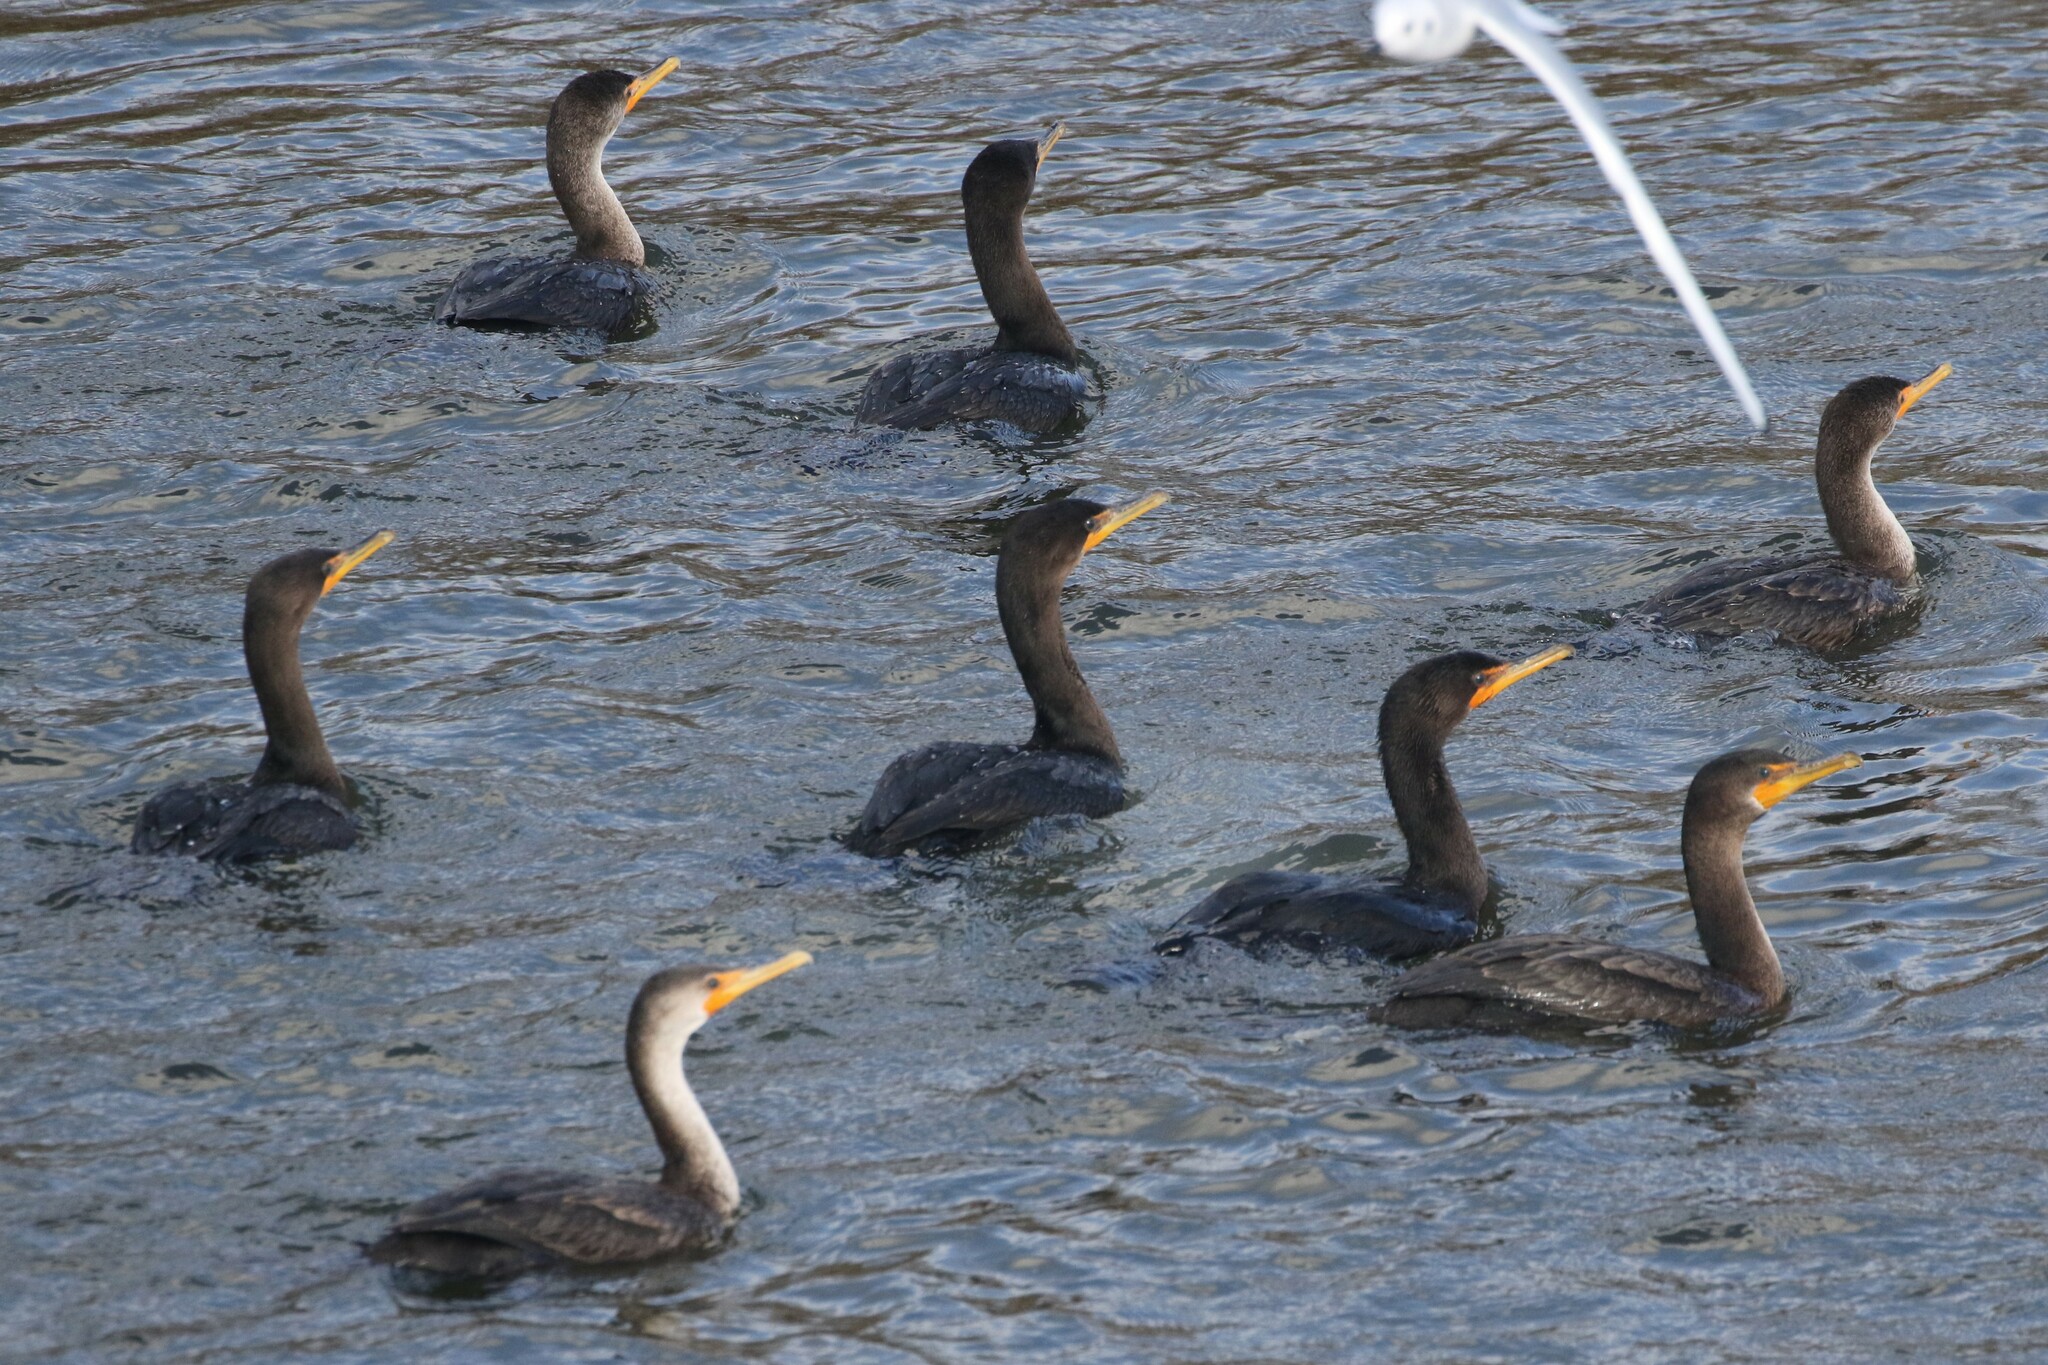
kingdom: Animalia
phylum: Chordata
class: Aves
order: Suliformes
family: Phalacrocoracidae
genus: Phalacrocorax
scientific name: Phalacrocorax auritus
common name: Double-crested cormorant
